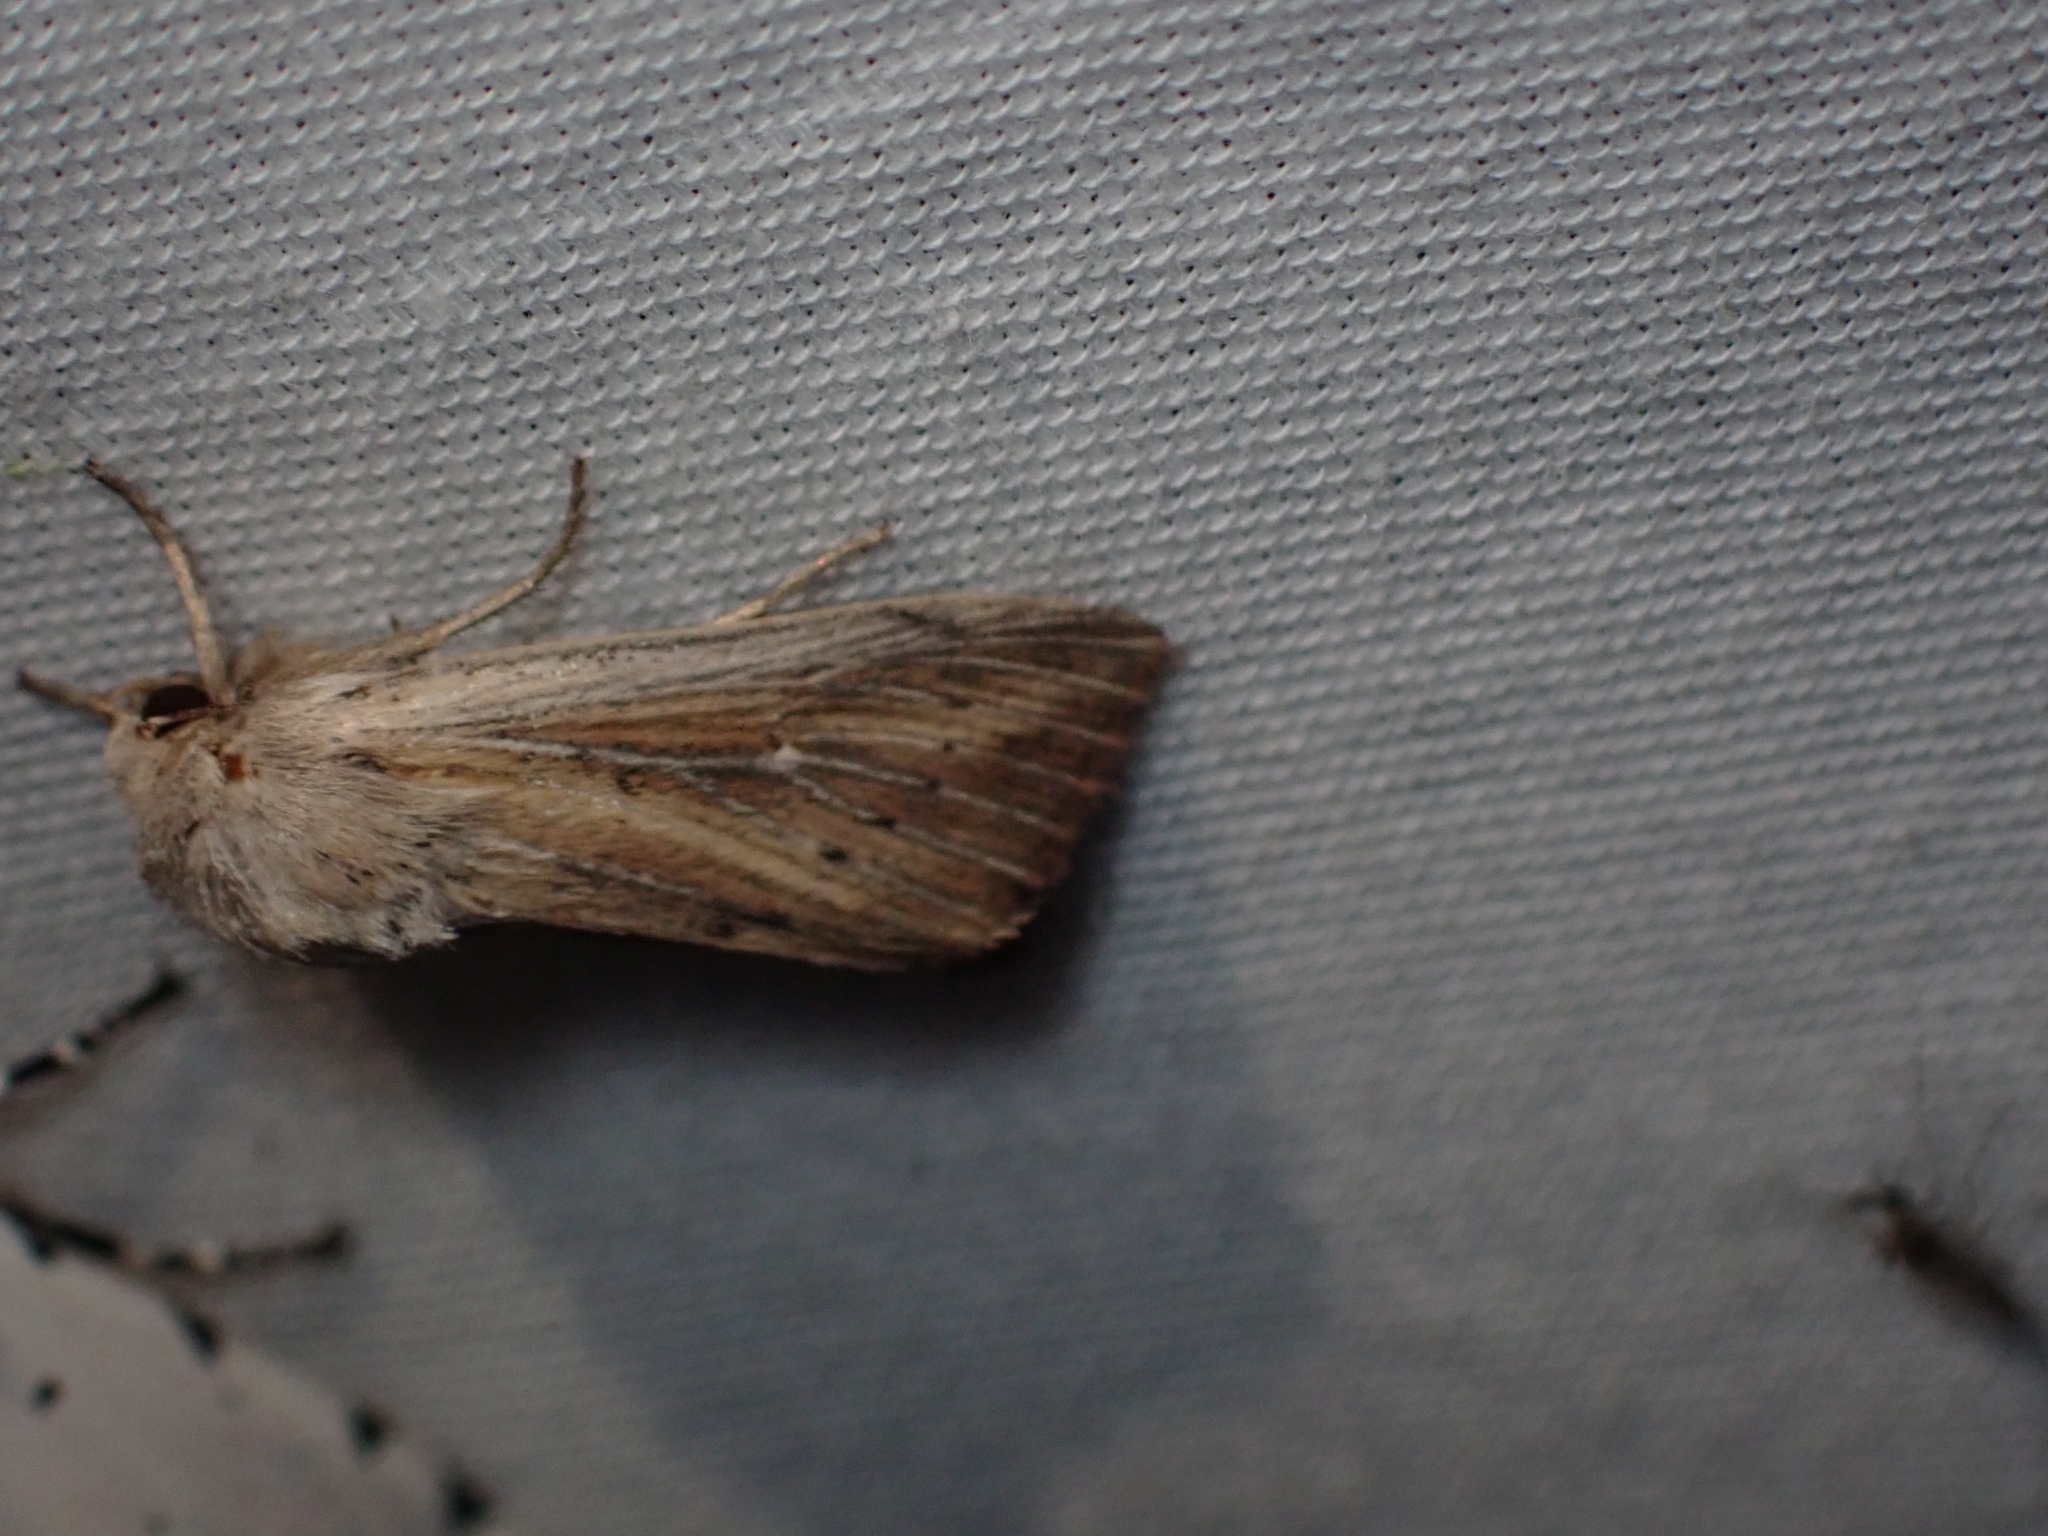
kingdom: Animalia
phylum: Arthropoda
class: Insecta
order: Lepidoptera
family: Noctuidae
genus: Leucania
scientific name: Leucania insueta
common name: Heterodox wainscot moth
